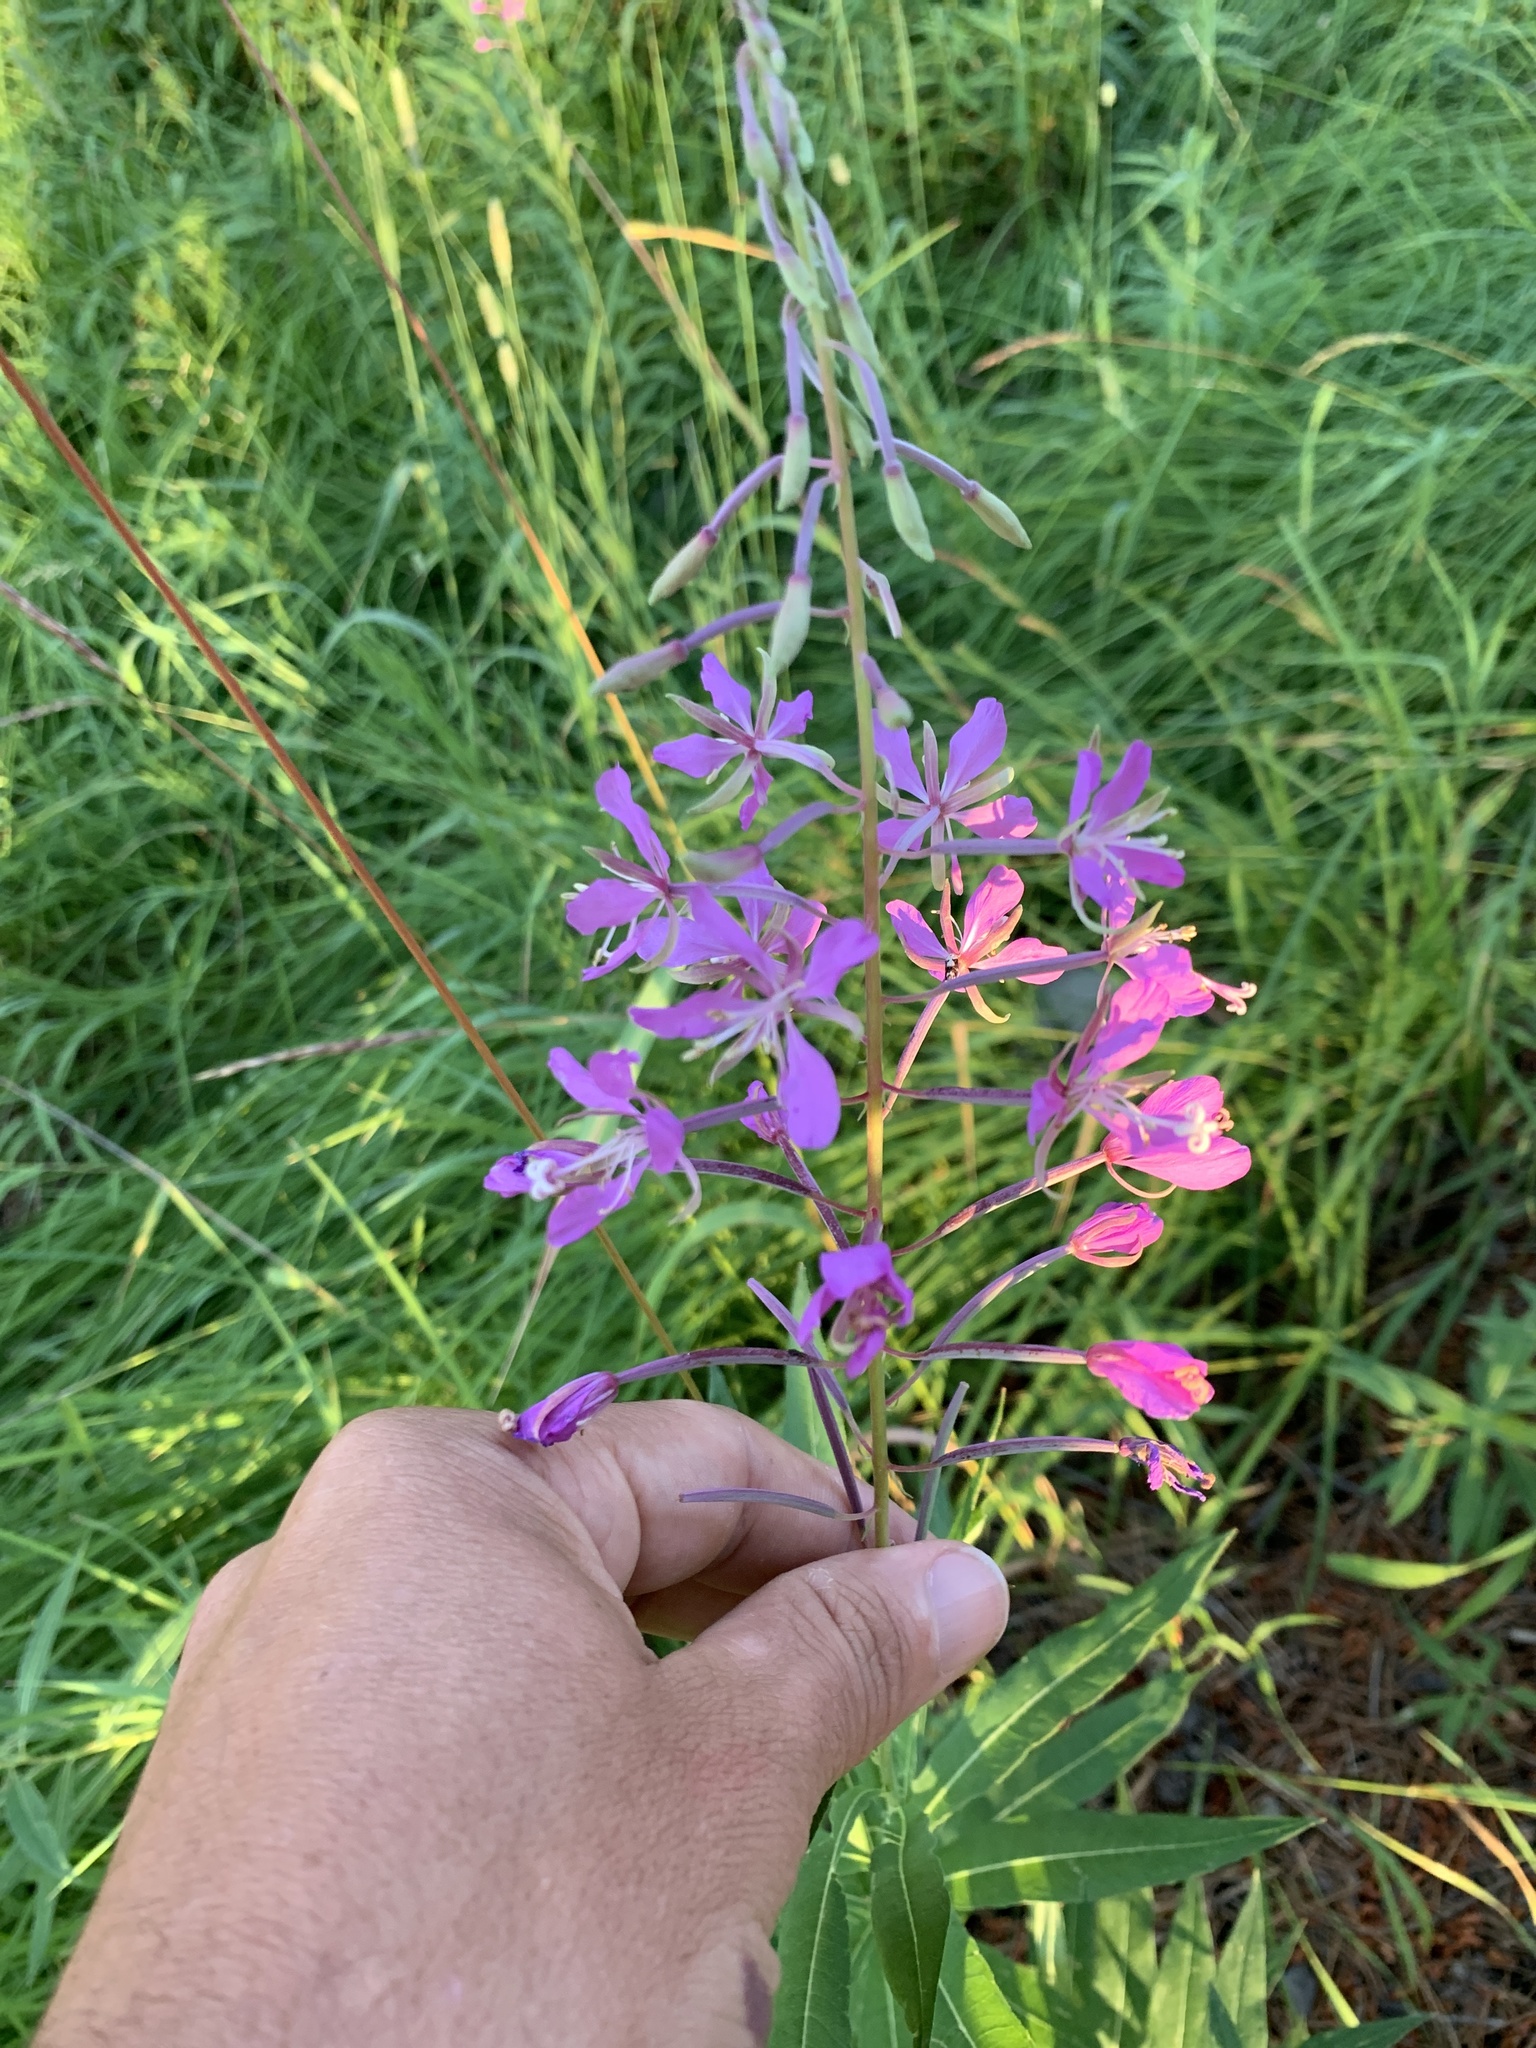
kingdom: Plantae
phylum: Tracheophyta
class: Magnoliopsida
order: Myrtales
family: Onagraceae
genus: Chamaenerion
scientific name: Chamaenerion angustifolium
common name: Fireweed
